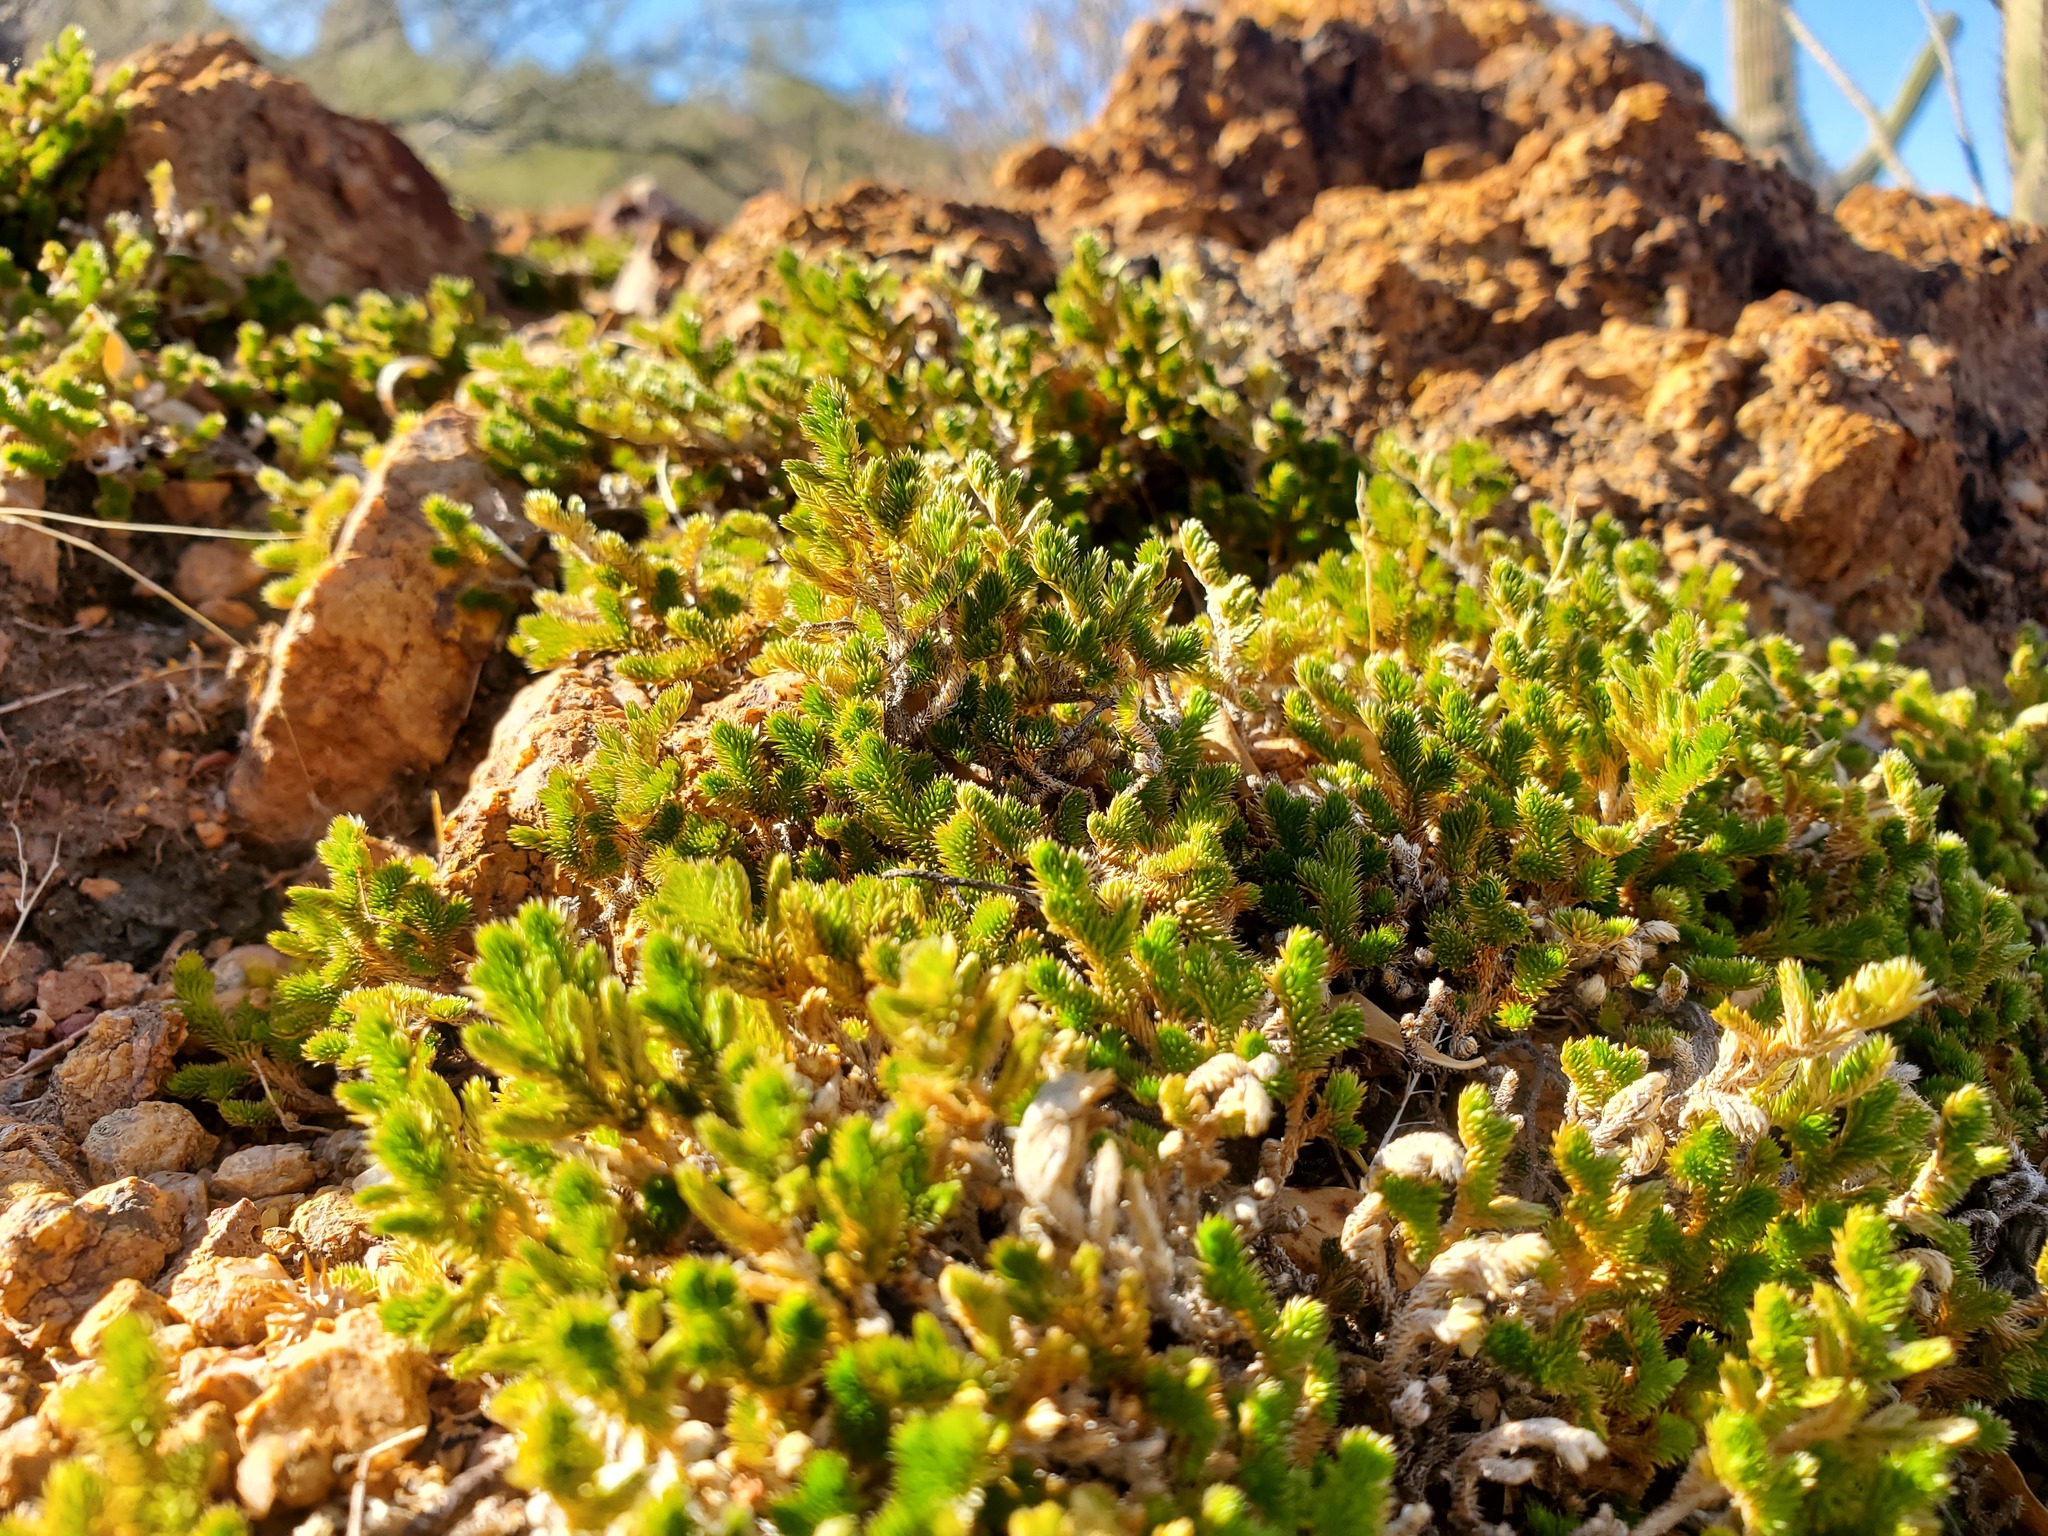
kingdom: Plantae
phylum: Tracheophyta
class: Lycopodiopsida
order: Selaginellales
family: Selaginellaceae
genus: Selaginella
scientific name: Selaginella arizonica
